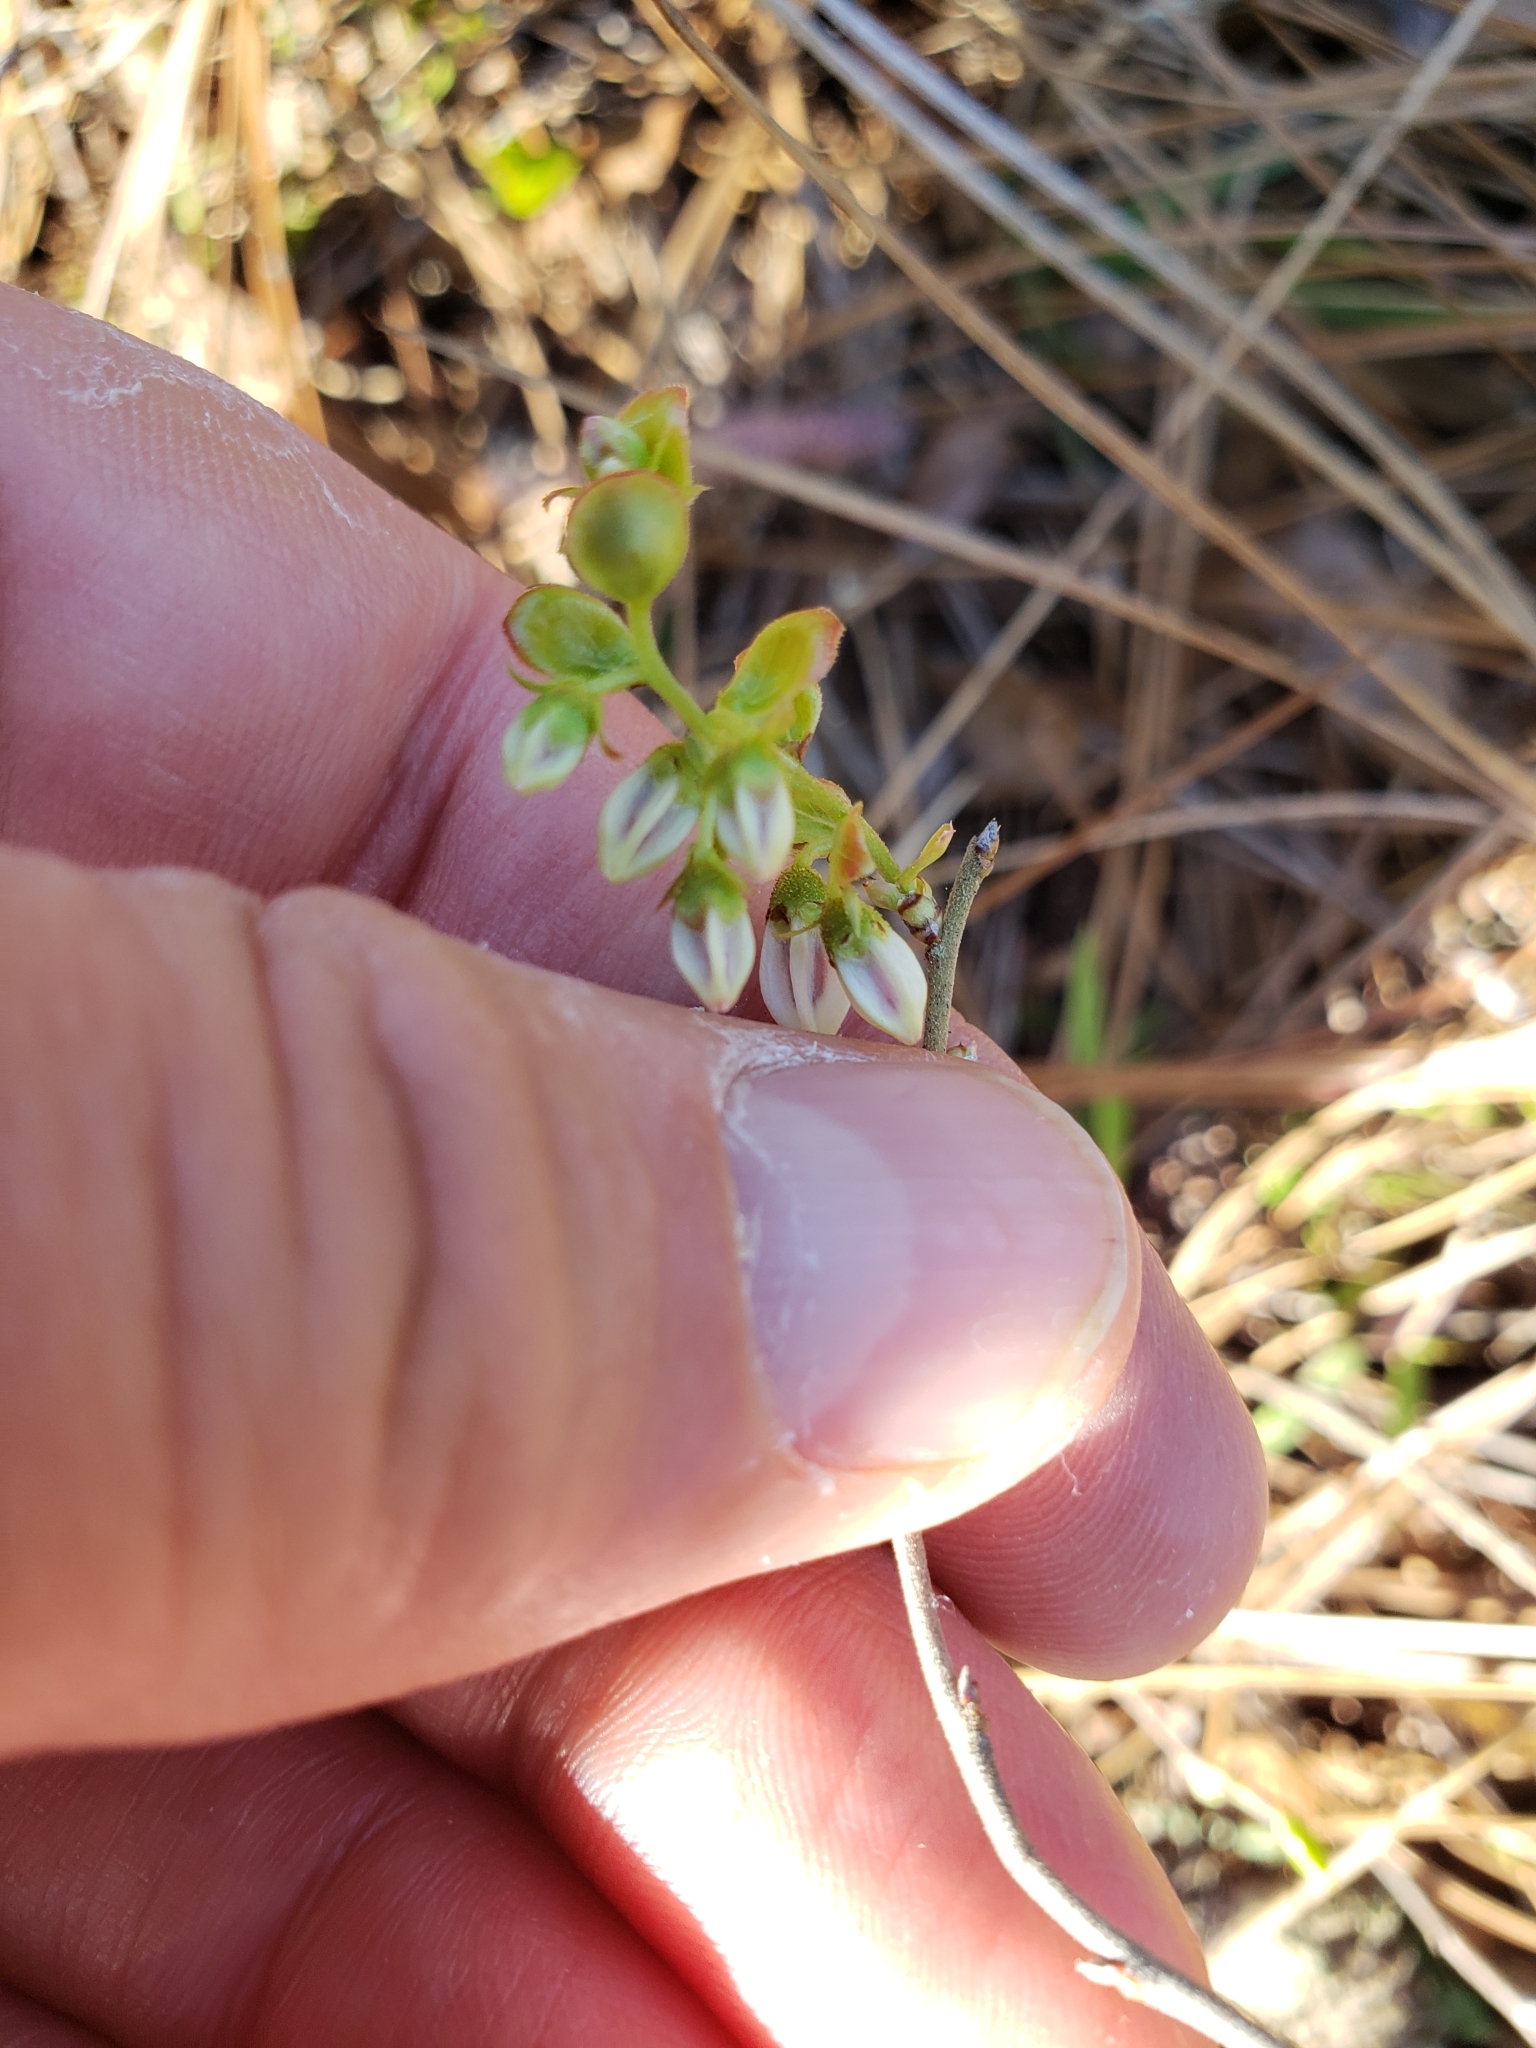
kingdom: Plantae
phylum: Tracheophyta
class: Magnoliopsida
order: Ericales
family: Ericaceae
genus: Gaylussacia
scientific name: Gaylussacia dumosa
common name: Dwarf huckleberry
